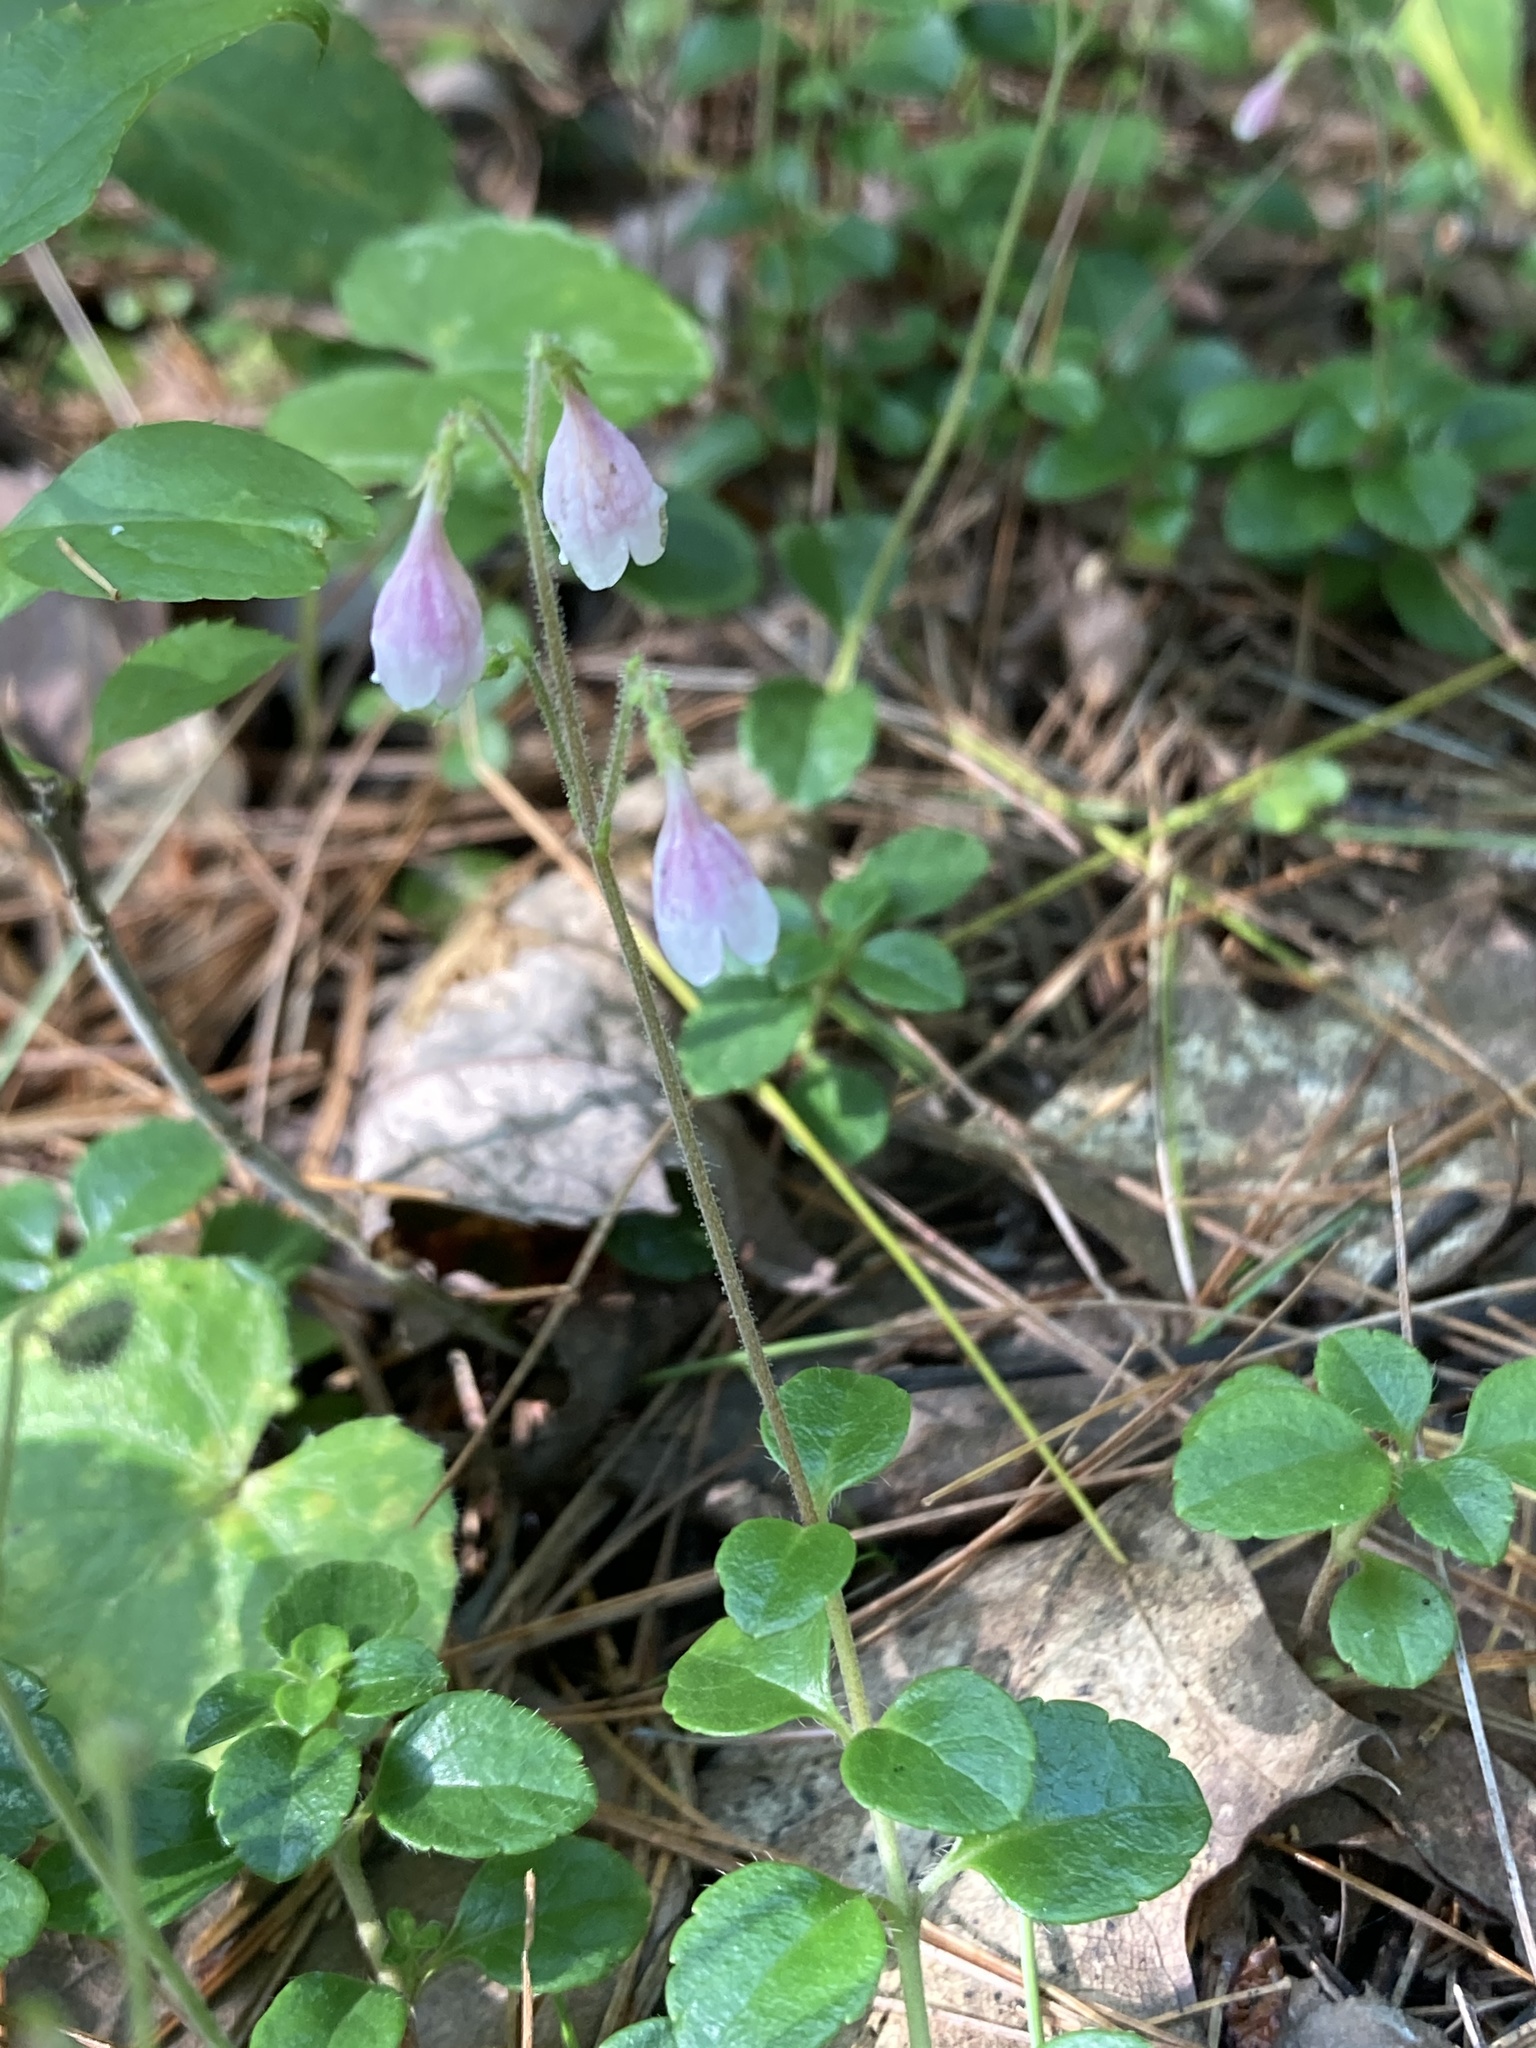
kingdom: Plantae
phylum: Tracheophyta
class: Magnoliopsida
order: Dipsacales
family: Caprifoliaceae
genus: Linnaea
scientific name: Linnaea borealis
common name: Twinflower
